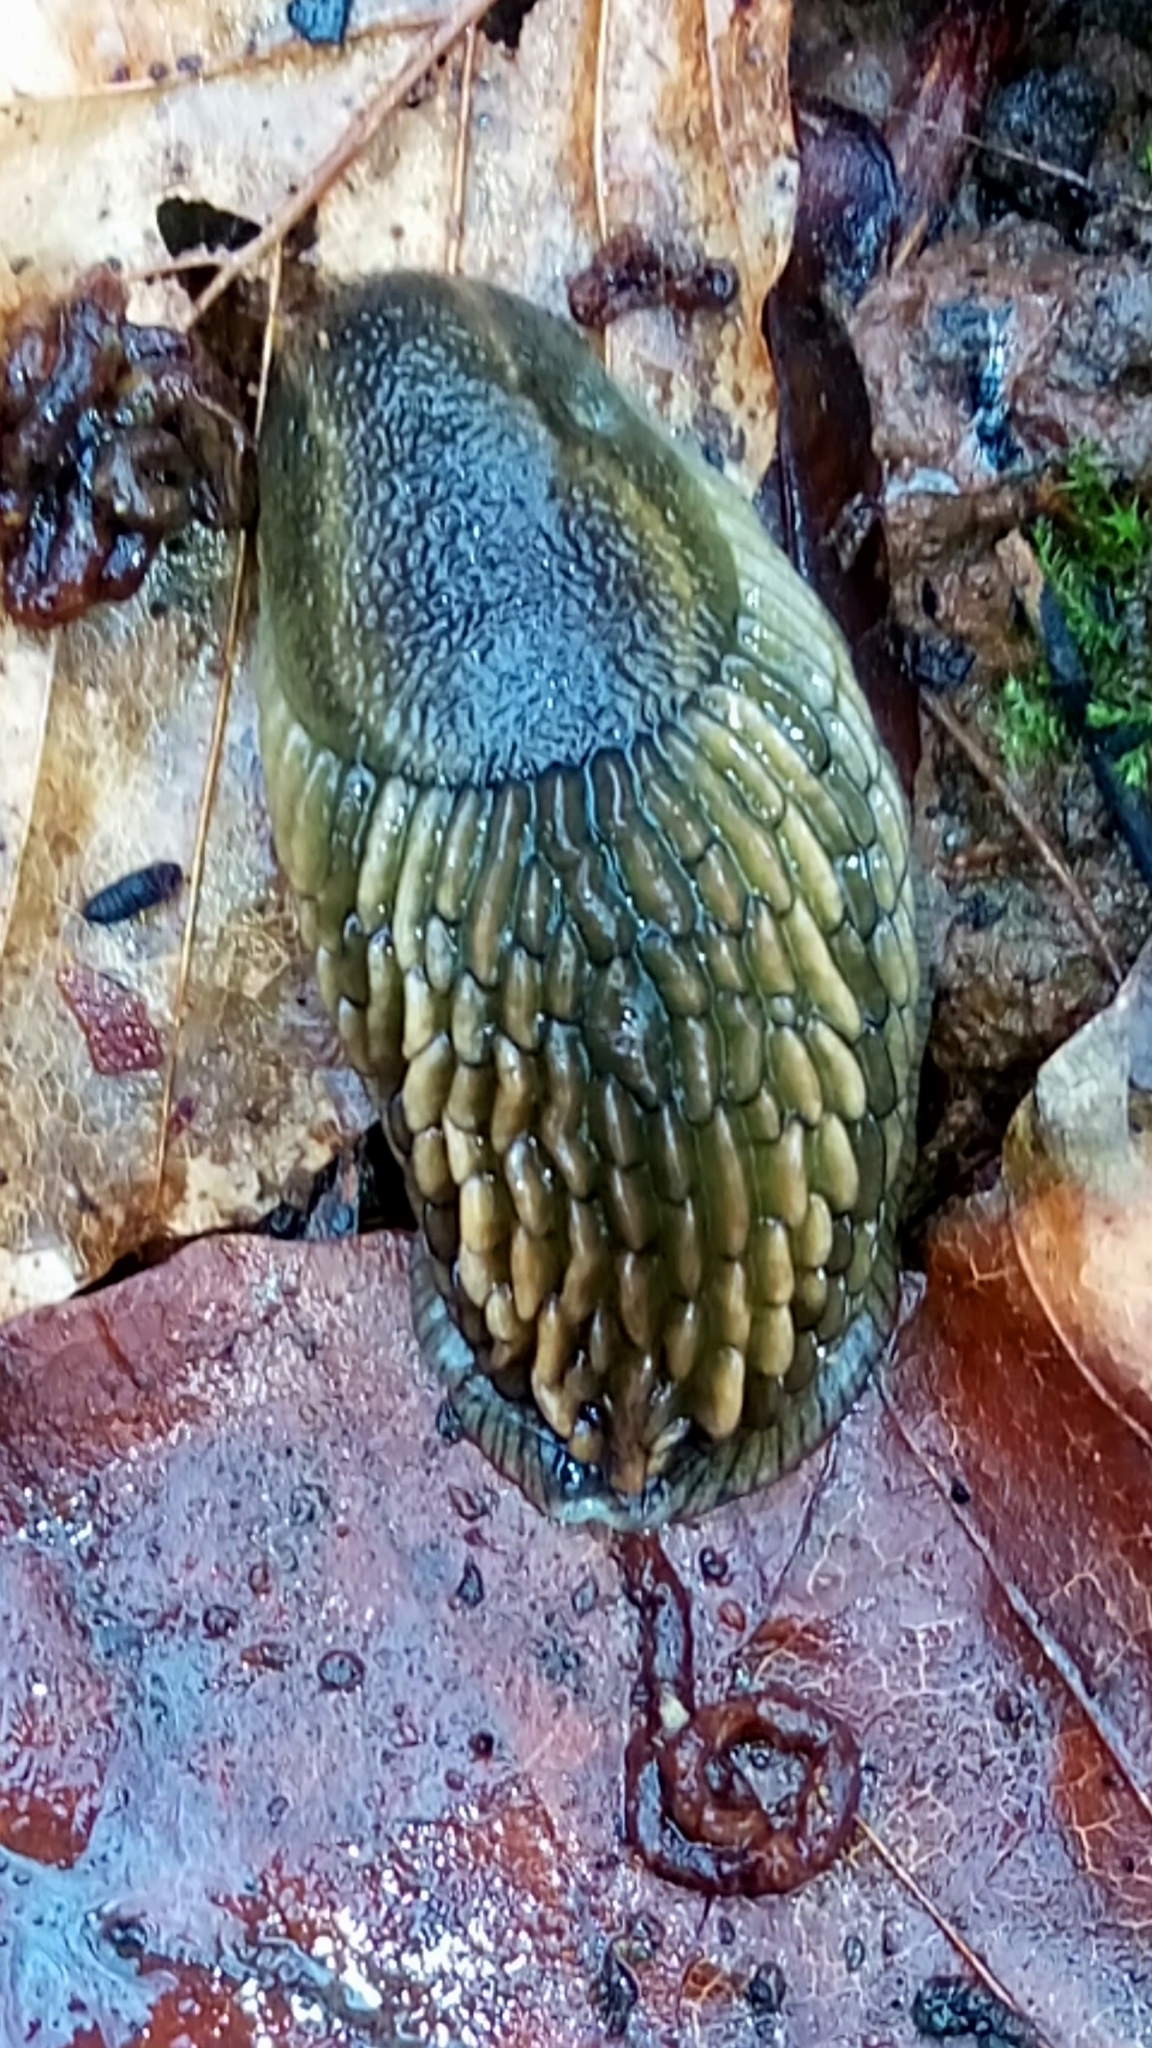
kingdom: Animalia
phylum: Mollusca
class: Gastropoda
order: Stylommatophora
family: Arionidae
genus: Arion
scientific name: Arion
